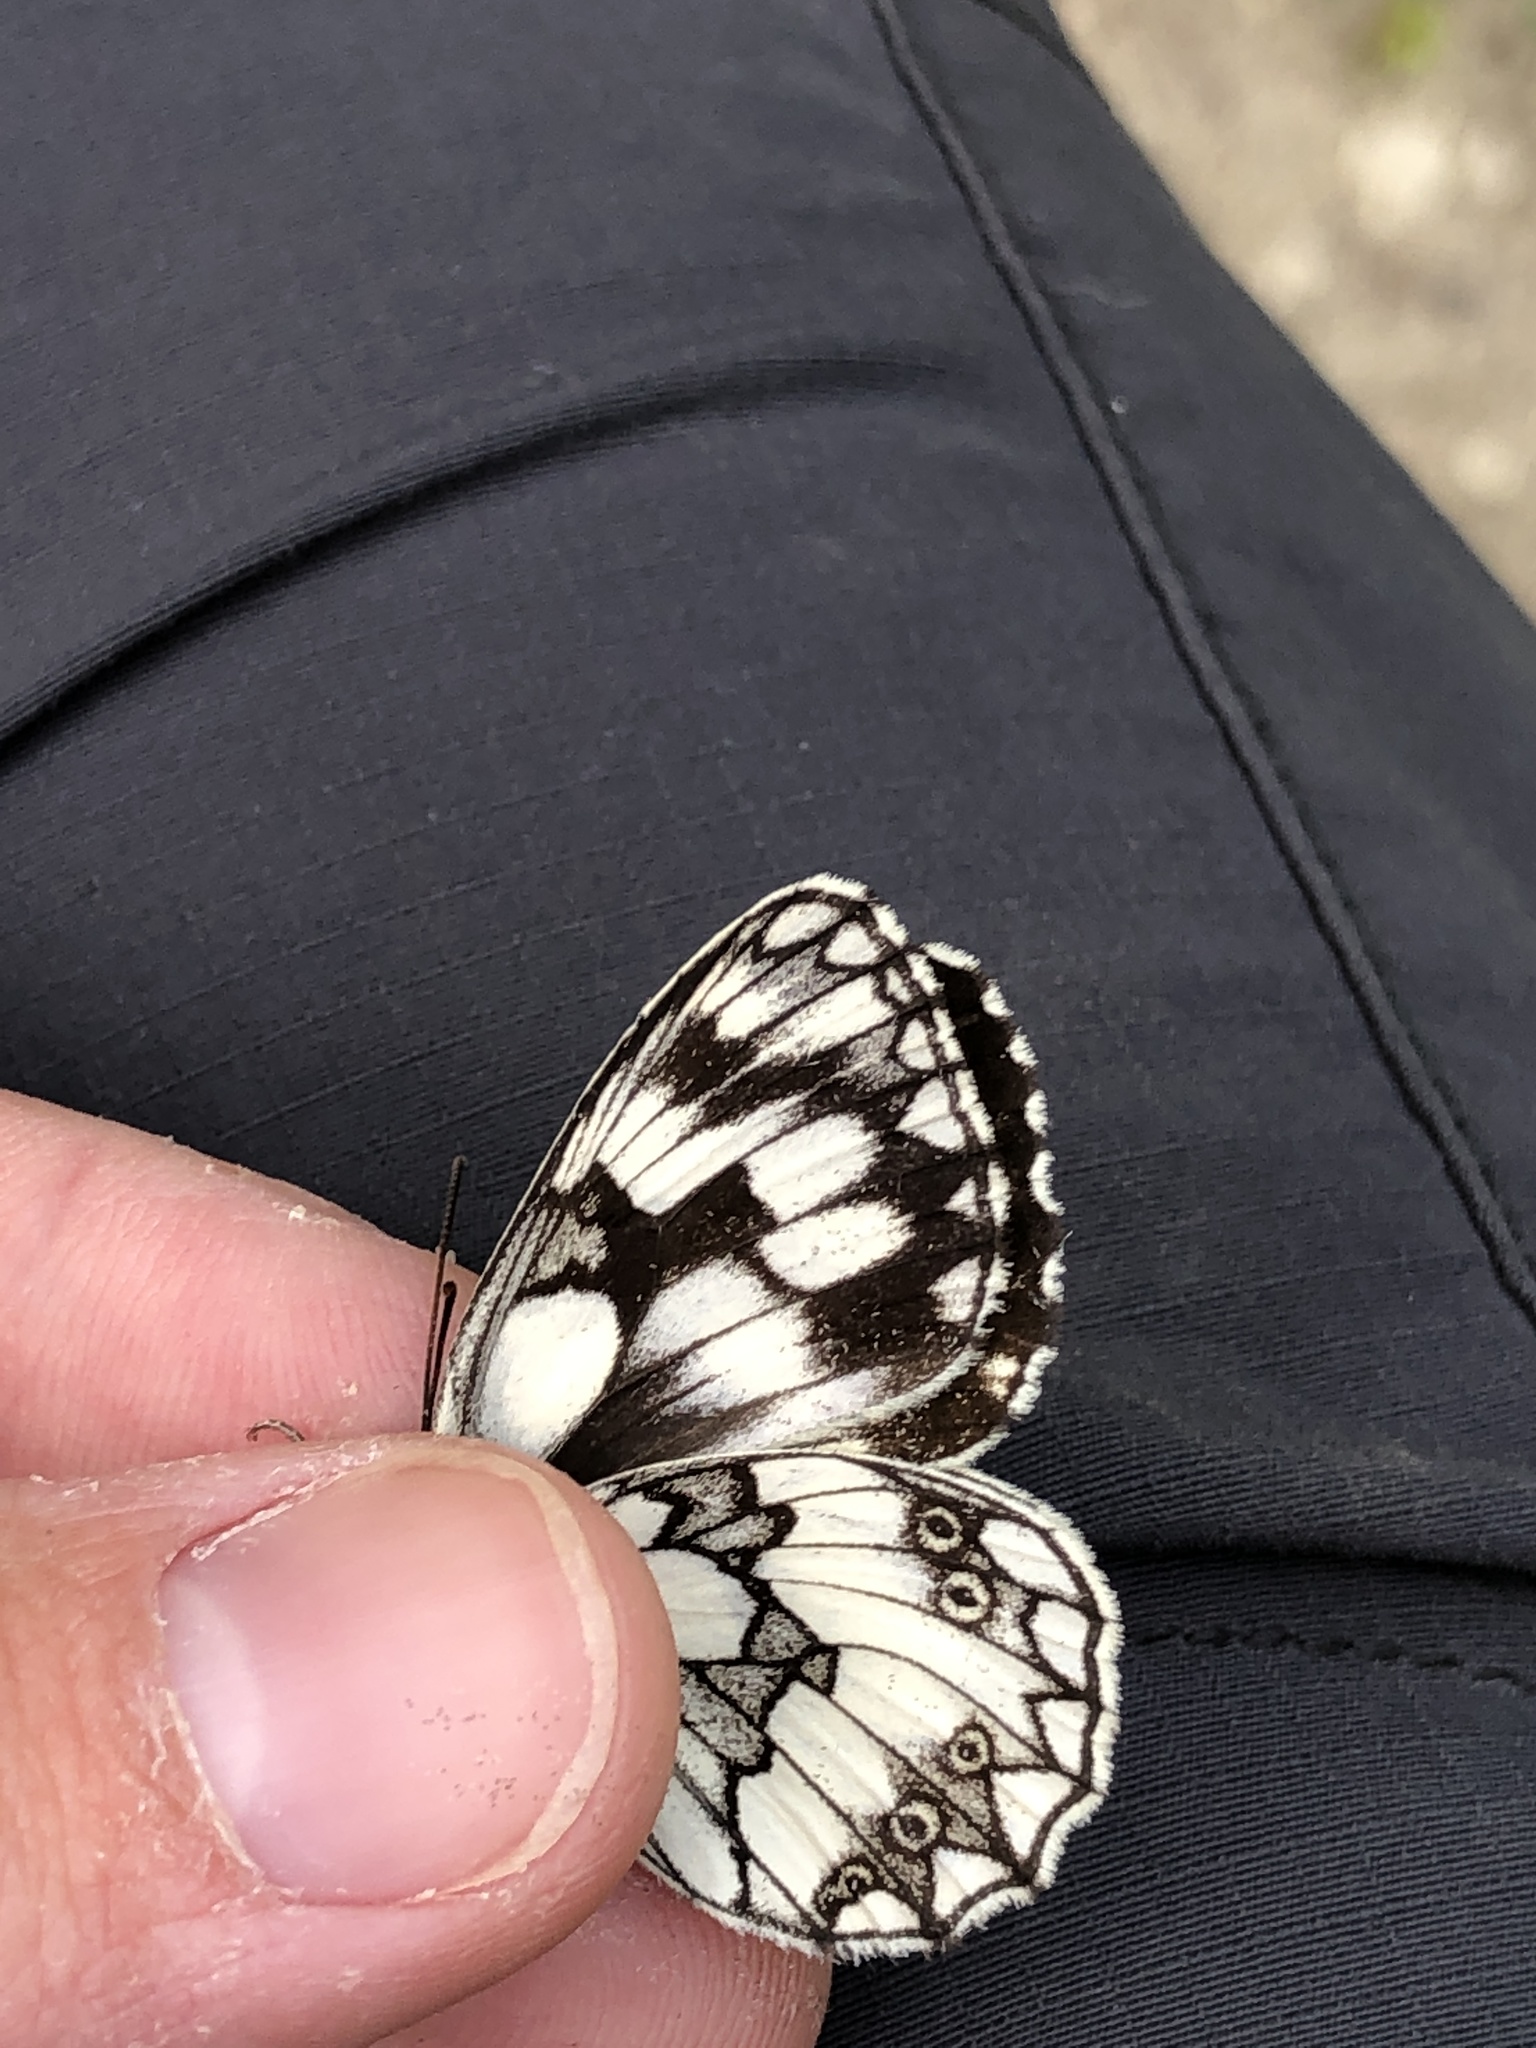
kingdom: Animalia
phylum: Arthropoda
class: Insecta
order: Lepidoptera
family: Nymphalidae
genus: Melanargia
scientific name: Melanargia galathea
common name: Marbled white
